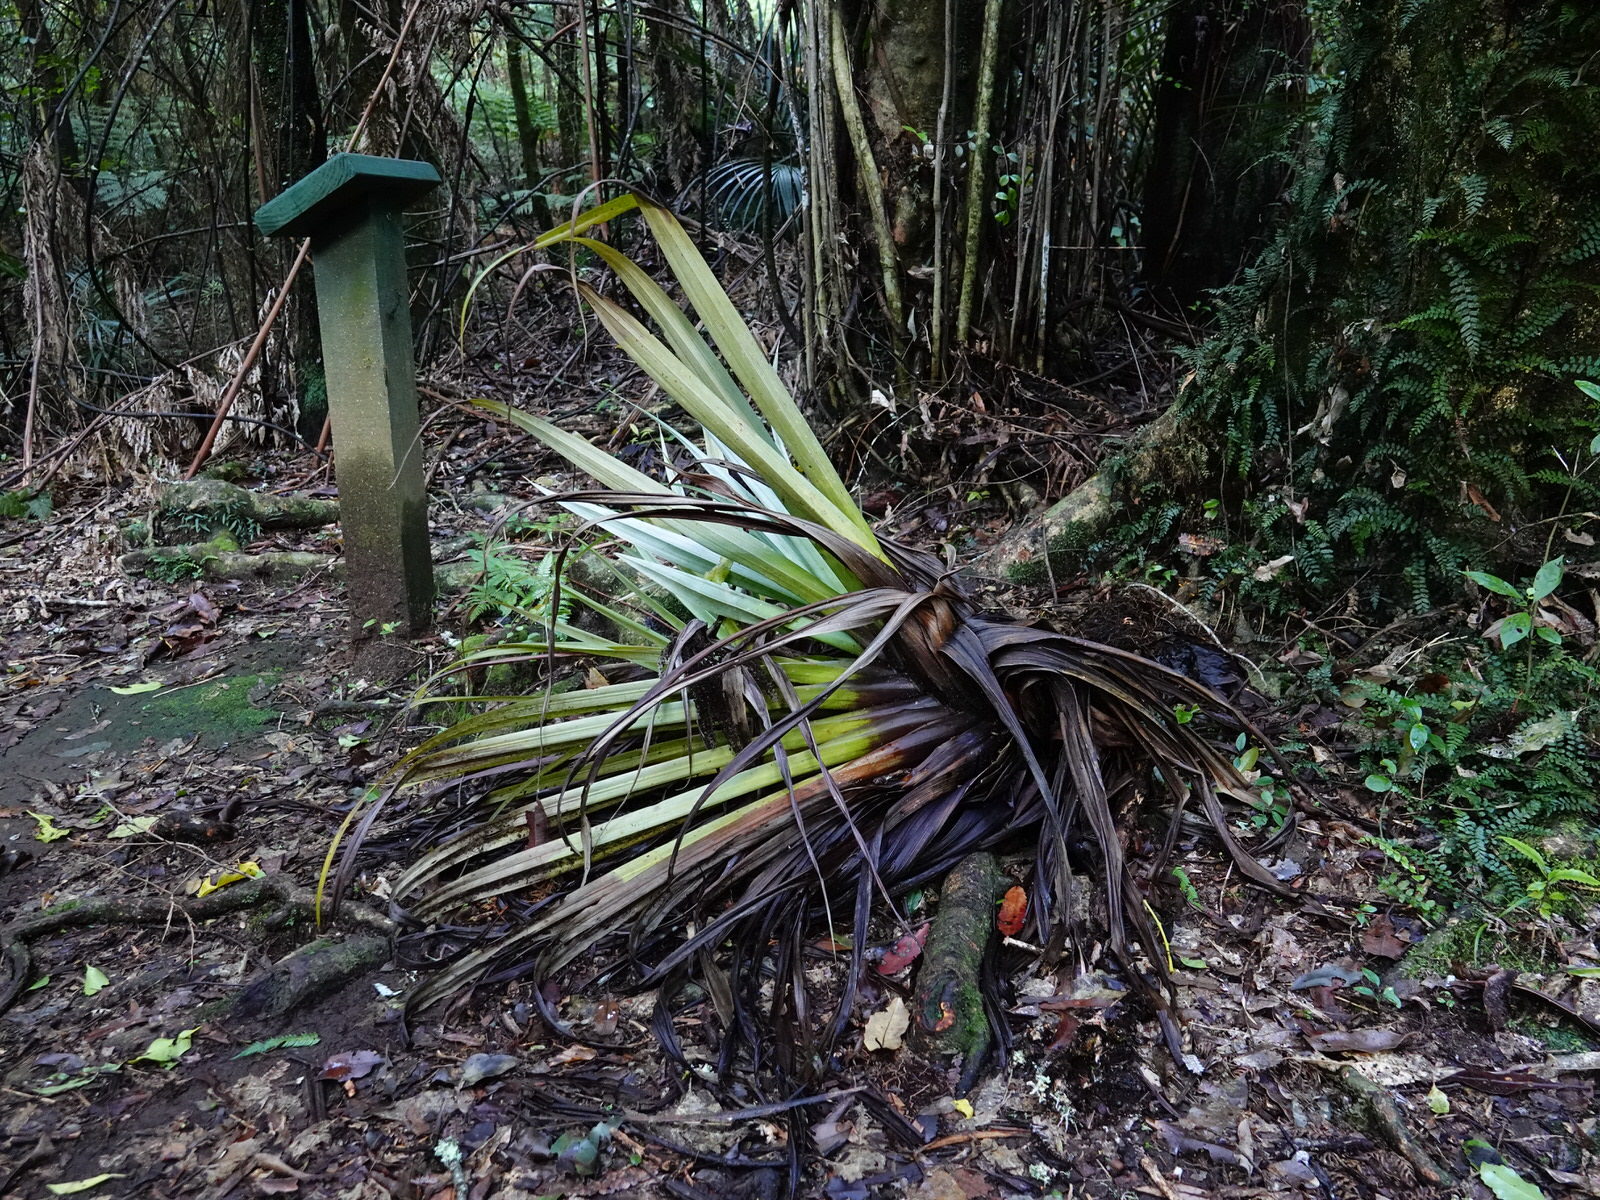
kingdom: Plantae
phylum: Tracheophyta
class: Liliopsida
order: Asparagales
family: Asteliaceae
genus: Astelia
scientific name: Astelia hastata
